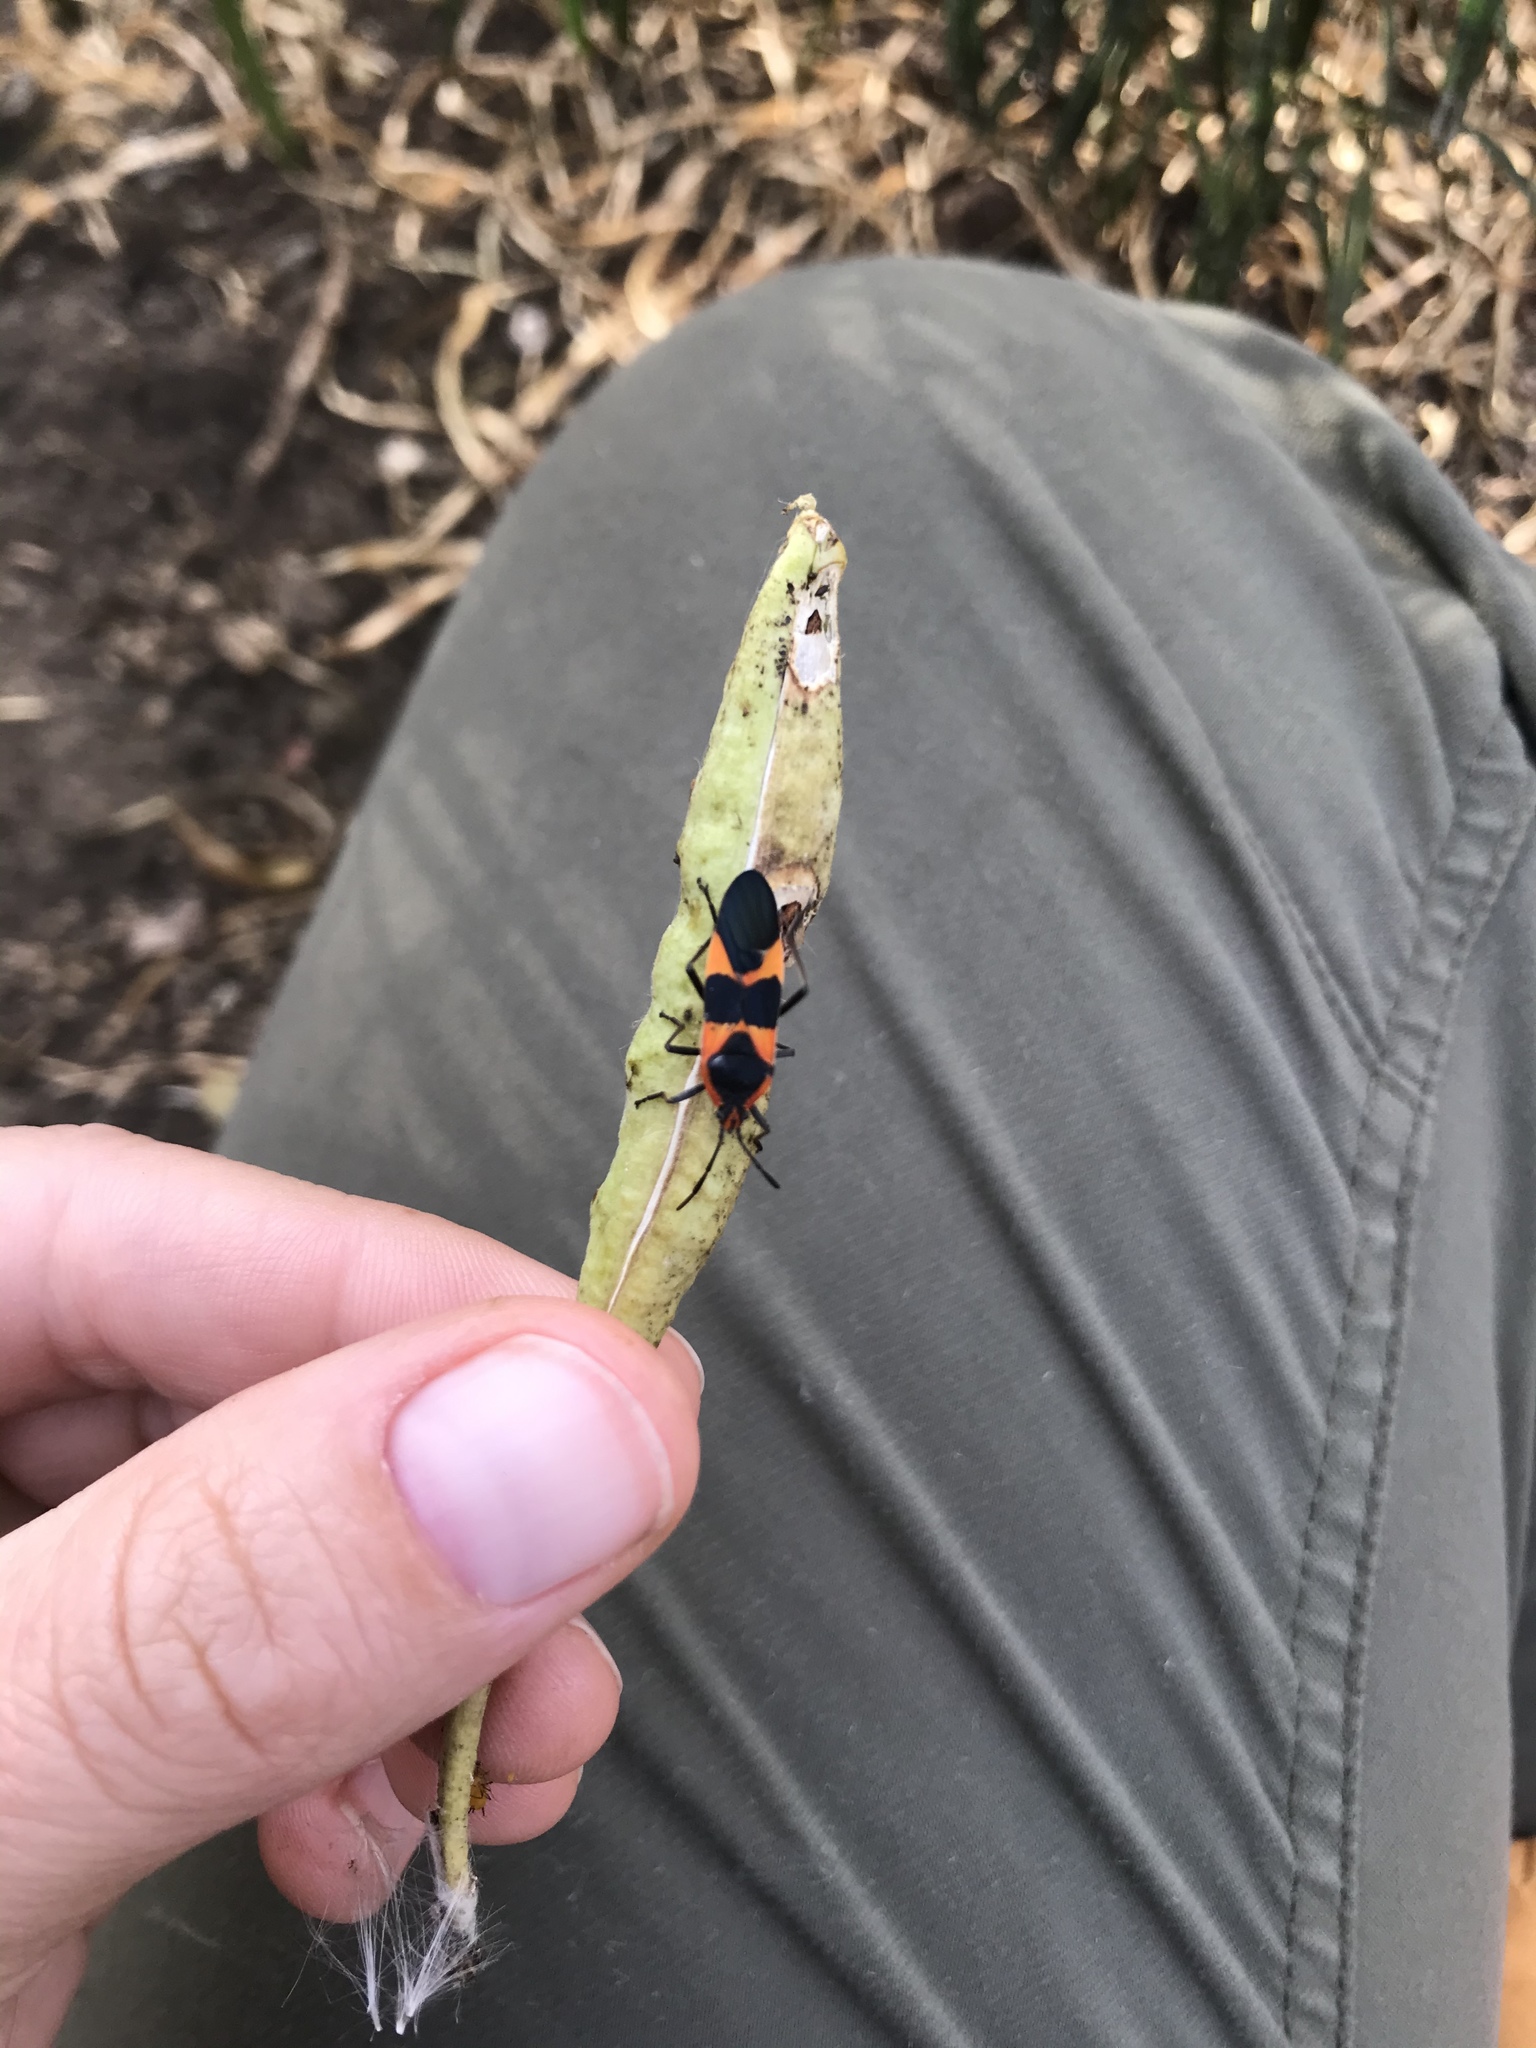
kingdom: Animalia
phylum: Arthropoda
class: Insecta
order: Hemiptera
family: Lygaeidae
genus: Oncopeltus
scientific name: Oncopeltus fasciatus
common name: Large milkweed bug
